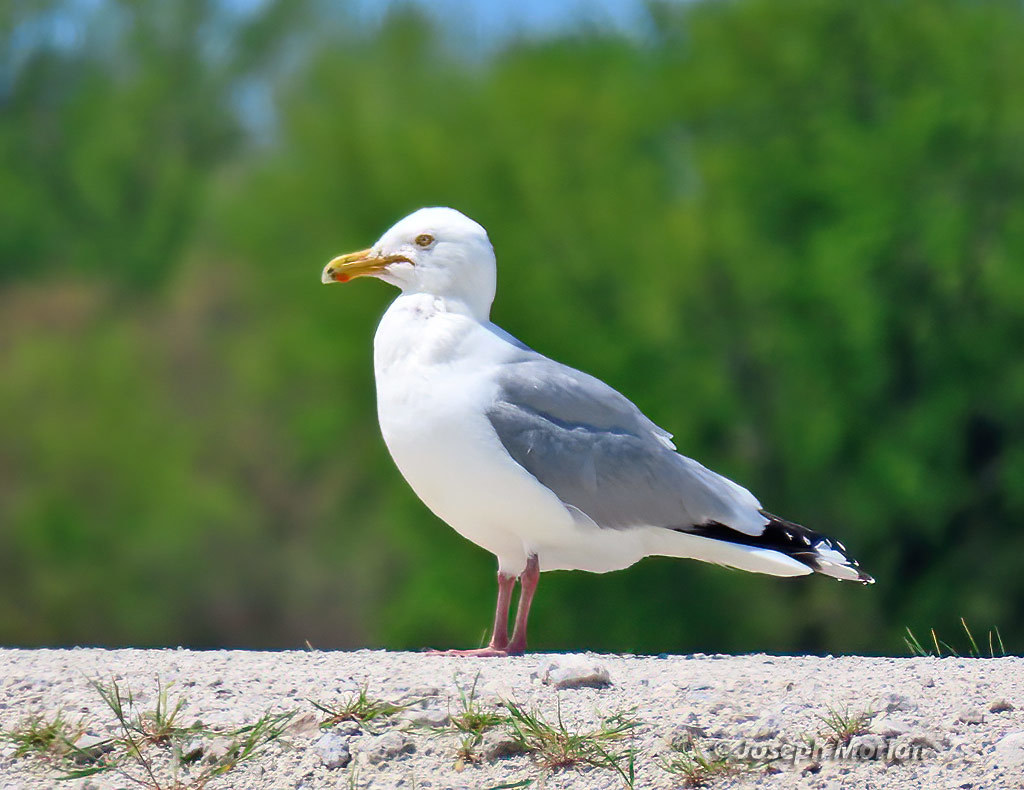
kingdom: Animalia
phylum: Chordata
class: Aves
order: Charadriiformes
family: Laridae
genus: Larus
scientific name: Larus argentatus
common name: Herring gull
